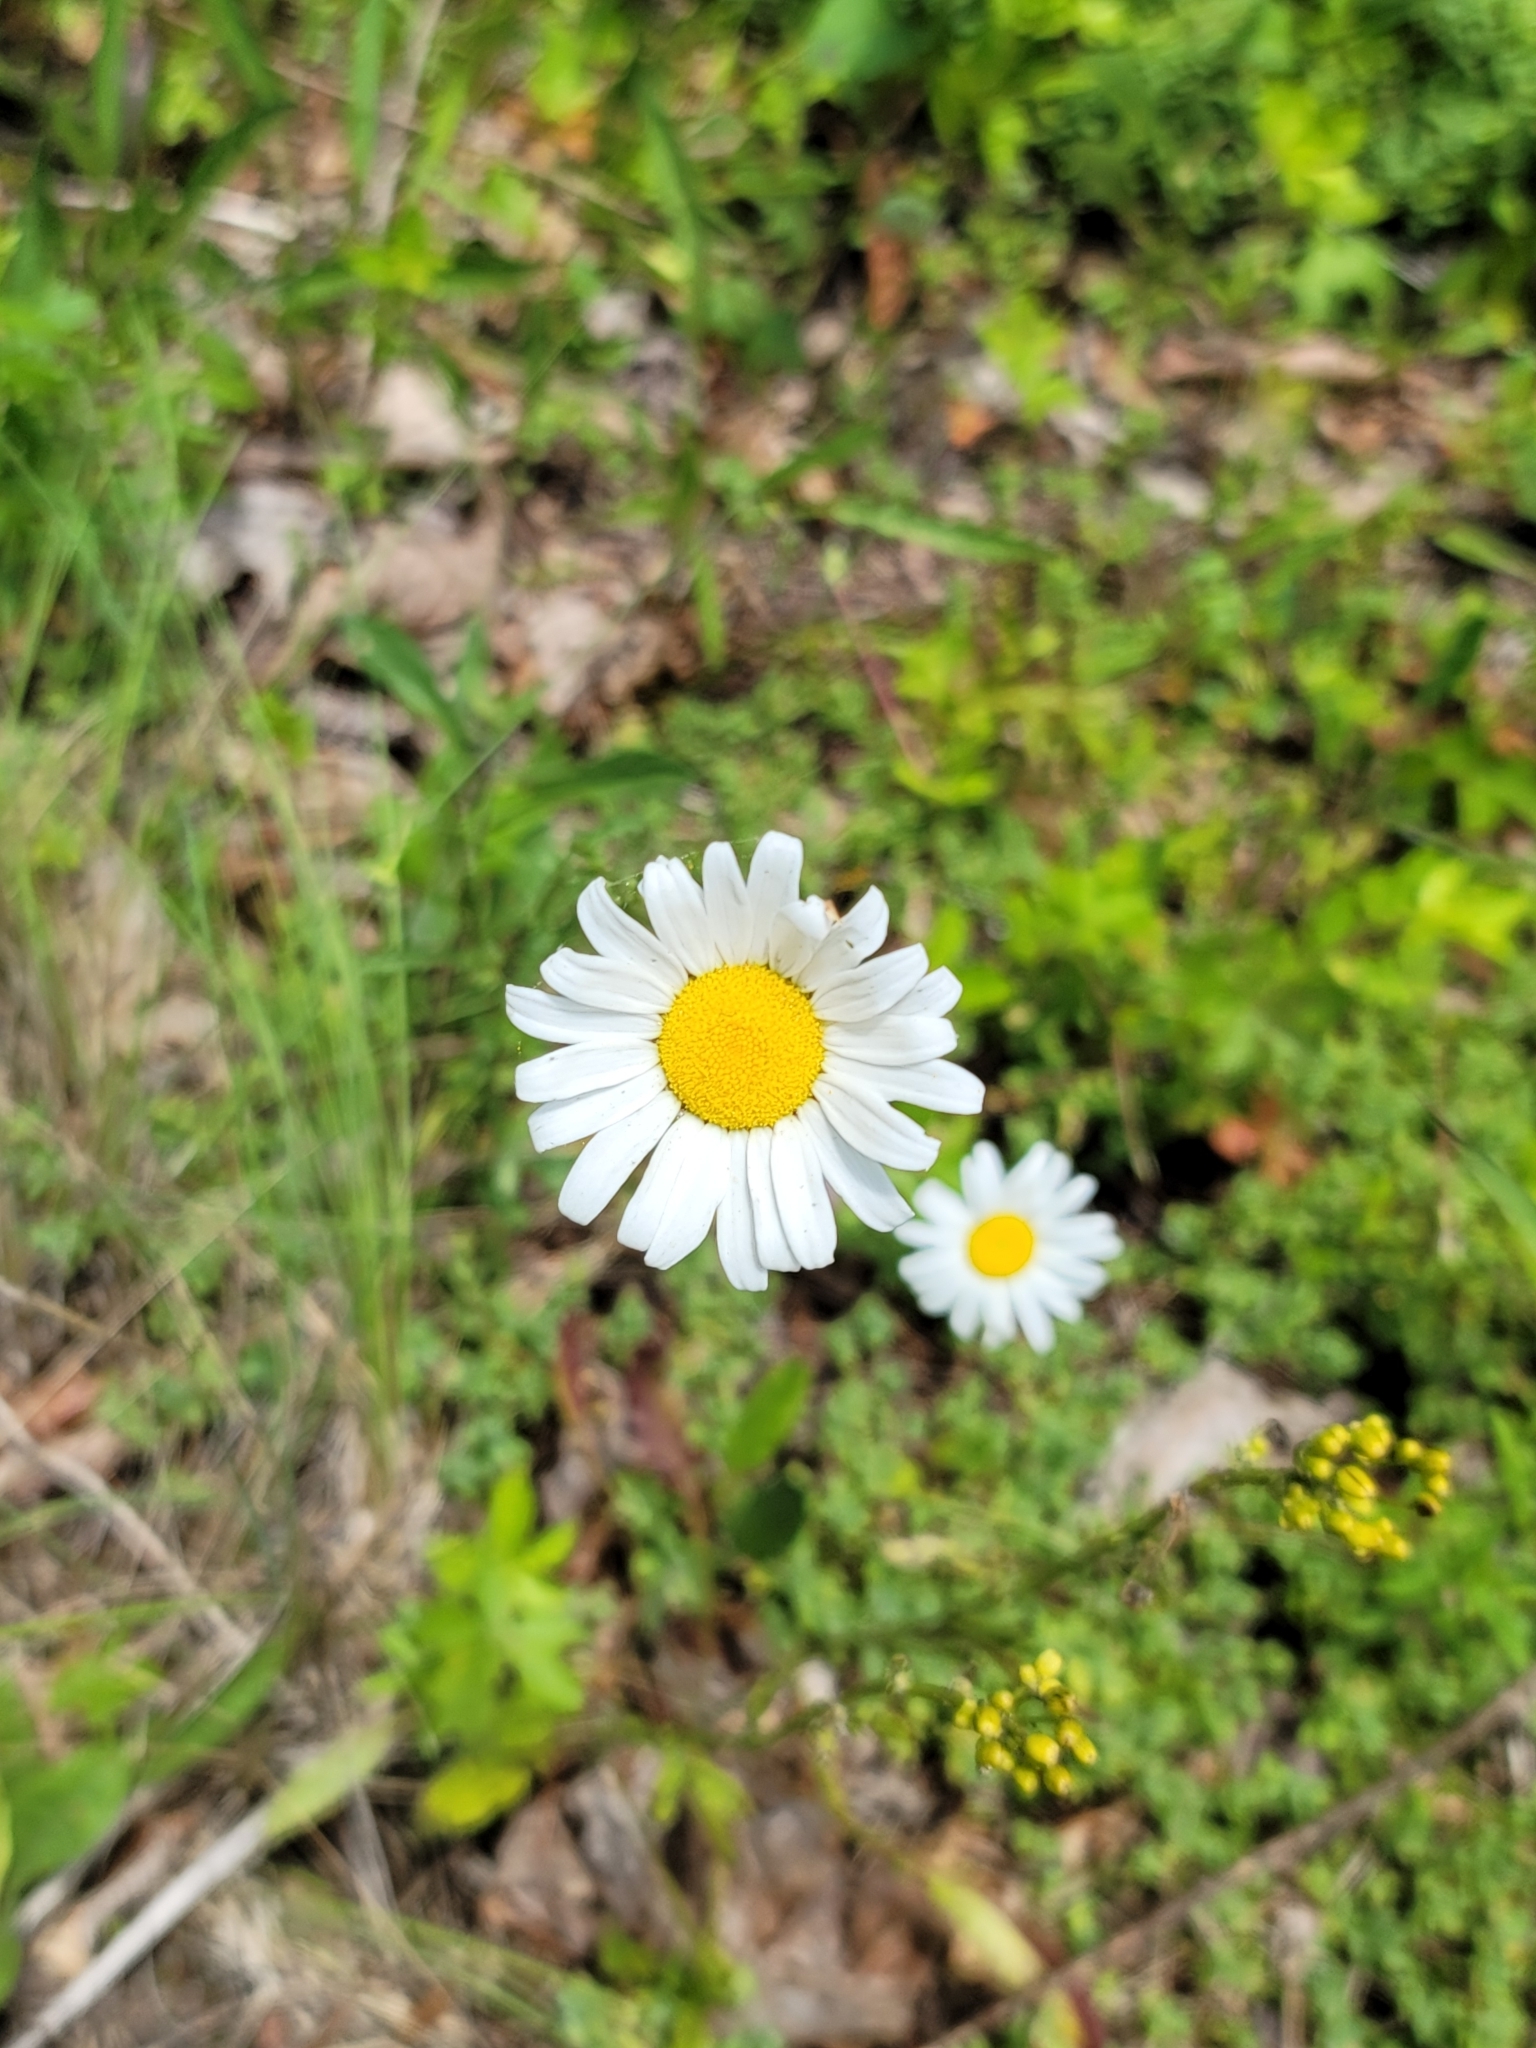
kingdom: Plantae
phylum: Tracheophyta
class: Magnoliopsida
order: Asterales
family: Asteraceae
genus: Leucanthemum
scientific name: Leucanthemum vulgare
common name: Oxeye daisy
